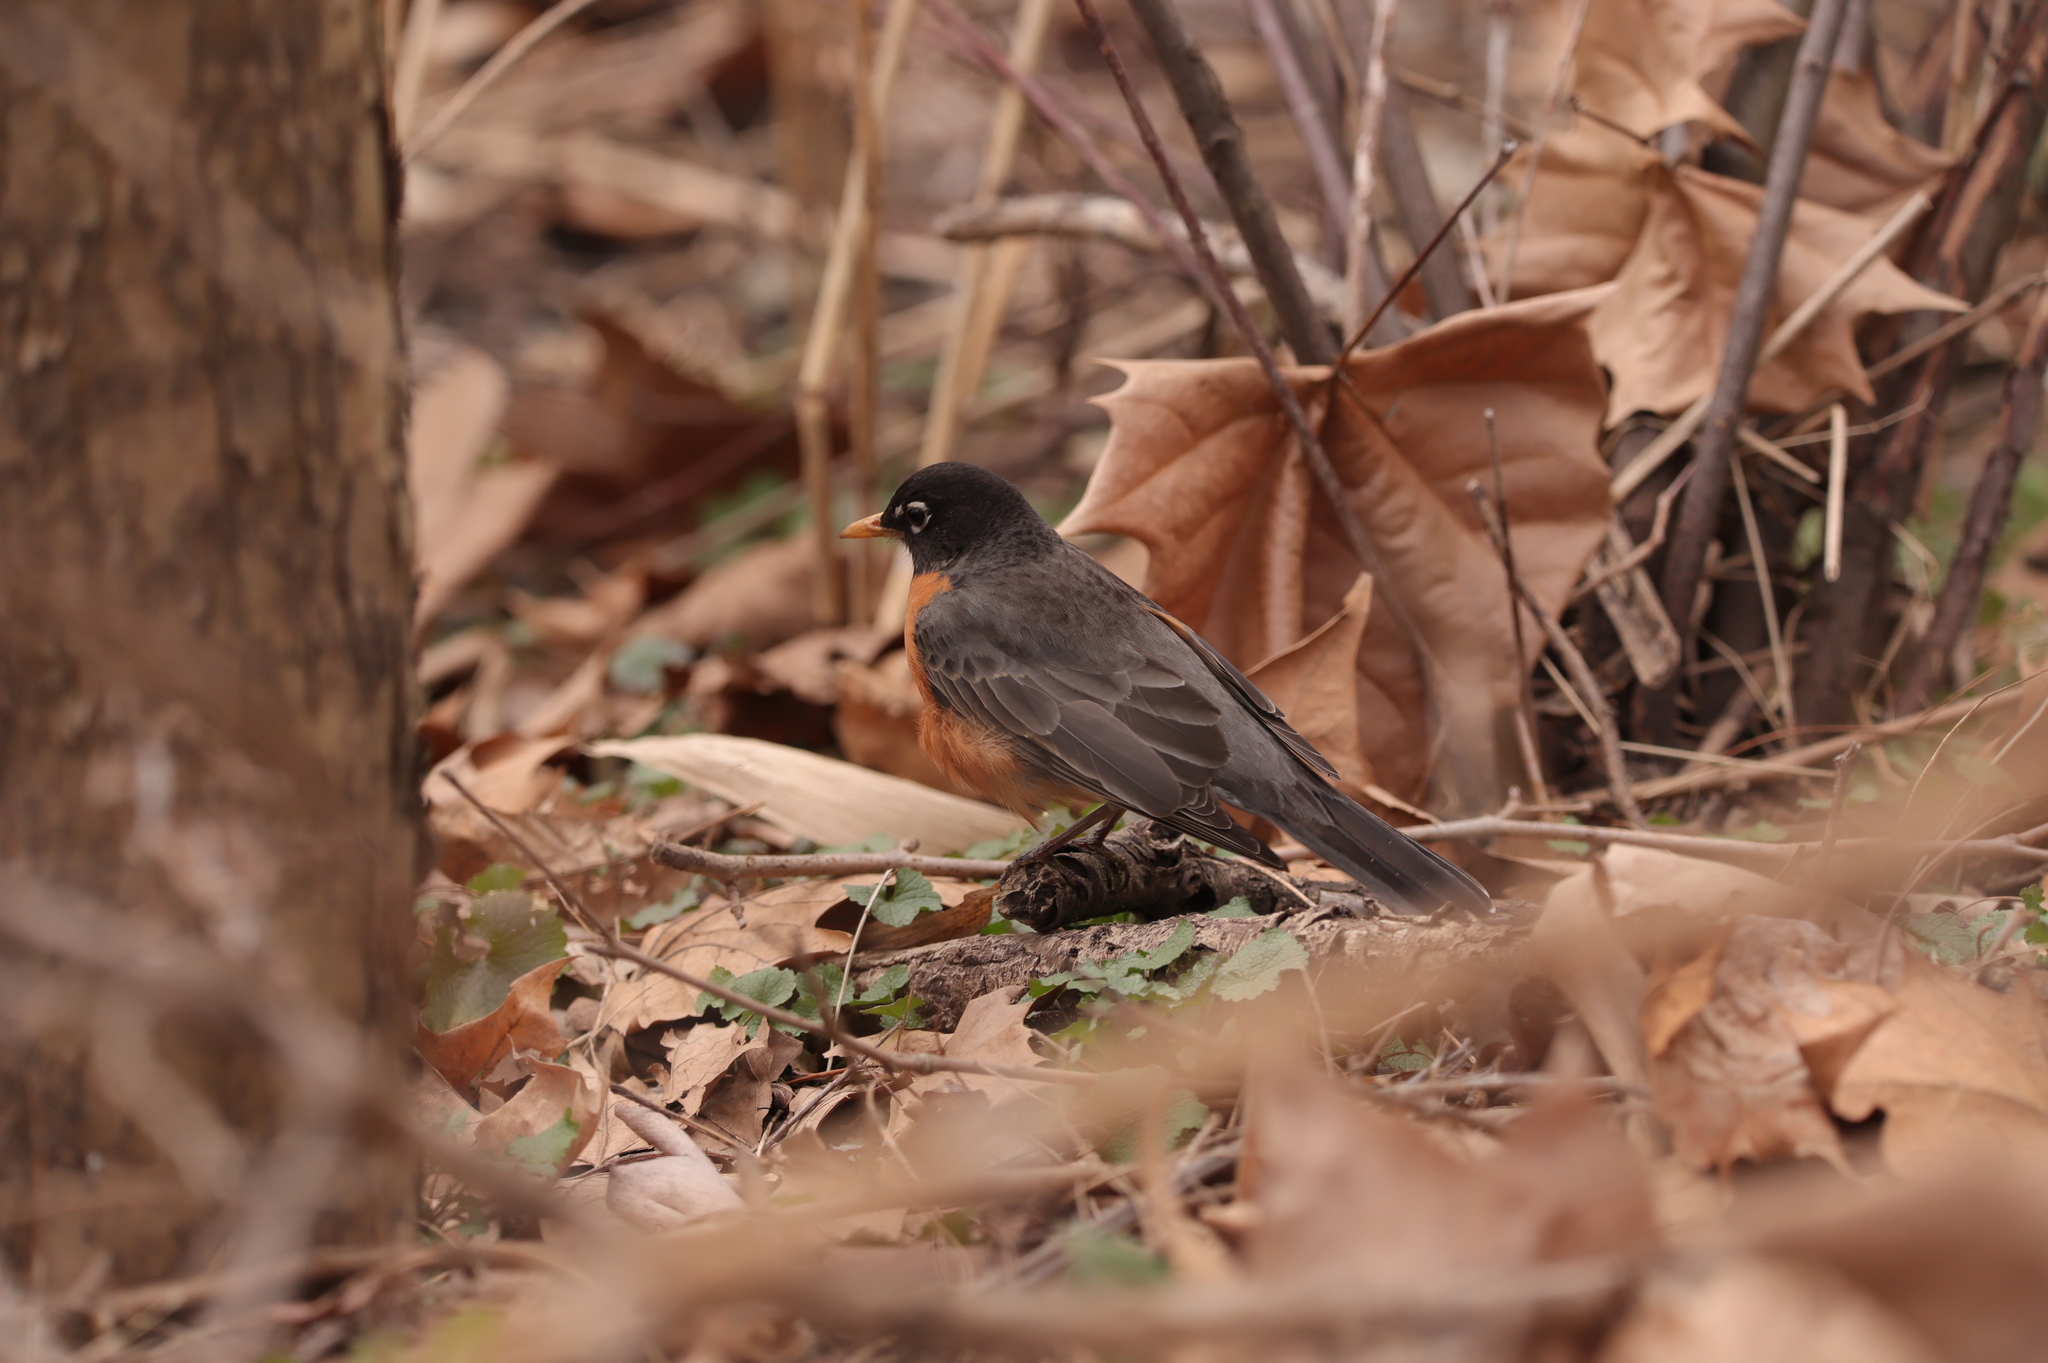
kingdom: Animalia
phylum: Chordata
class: Aves
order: Passeriformes
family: Turdidae
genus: Turdus
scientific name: Turdus migratorius
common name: American robin
